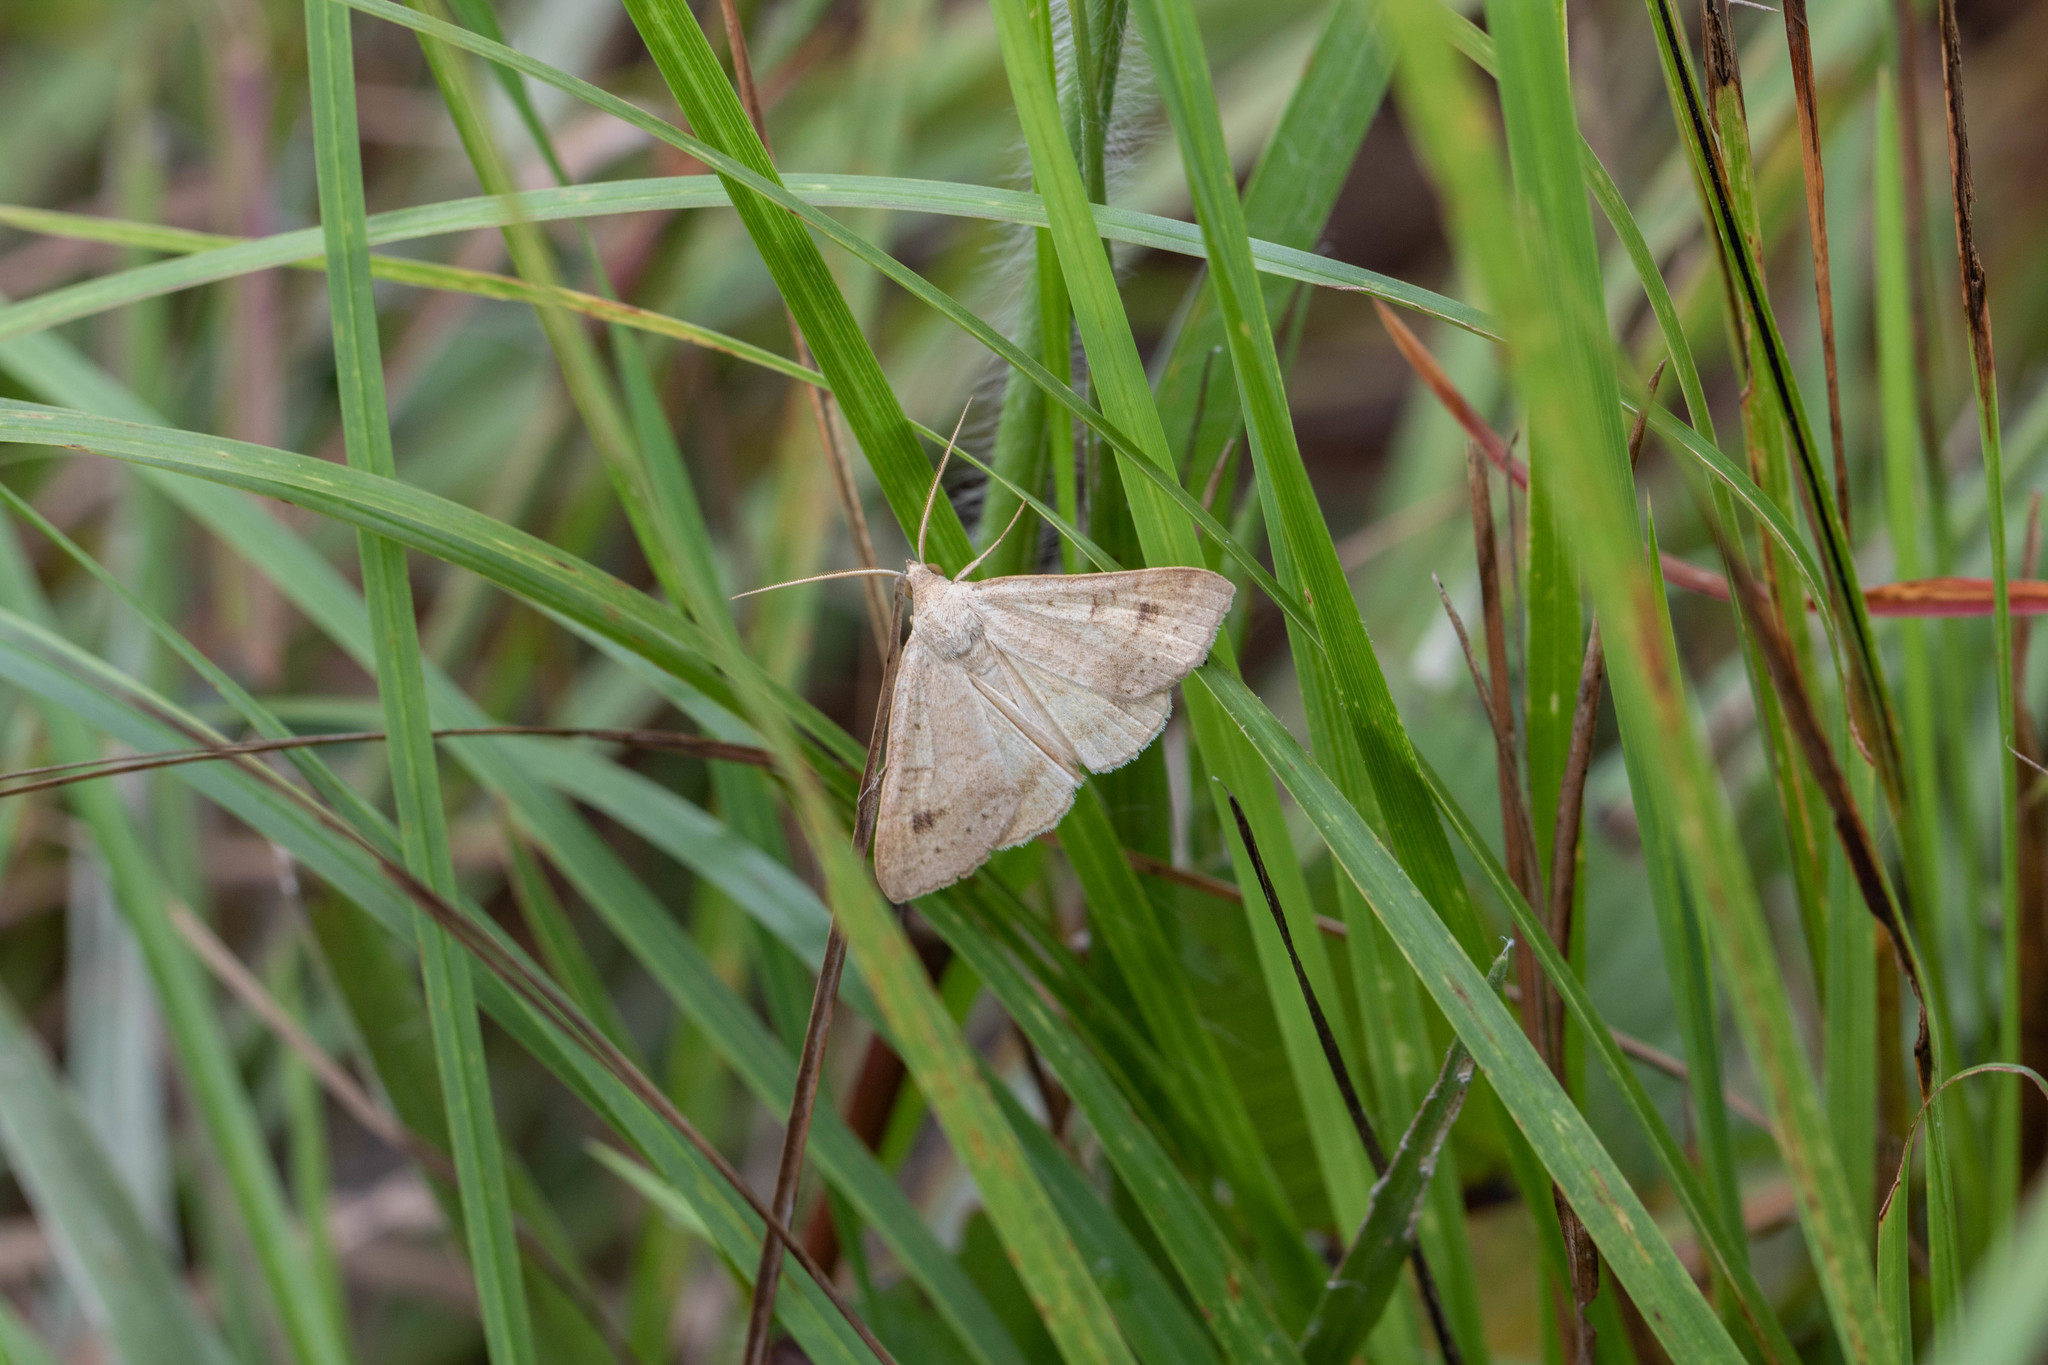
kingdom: Animalia
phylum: Arthropoda
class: Insecta
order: Lepidoptera
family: Erebidae
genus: Caenurgia
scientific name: Caenurgia chloropha
